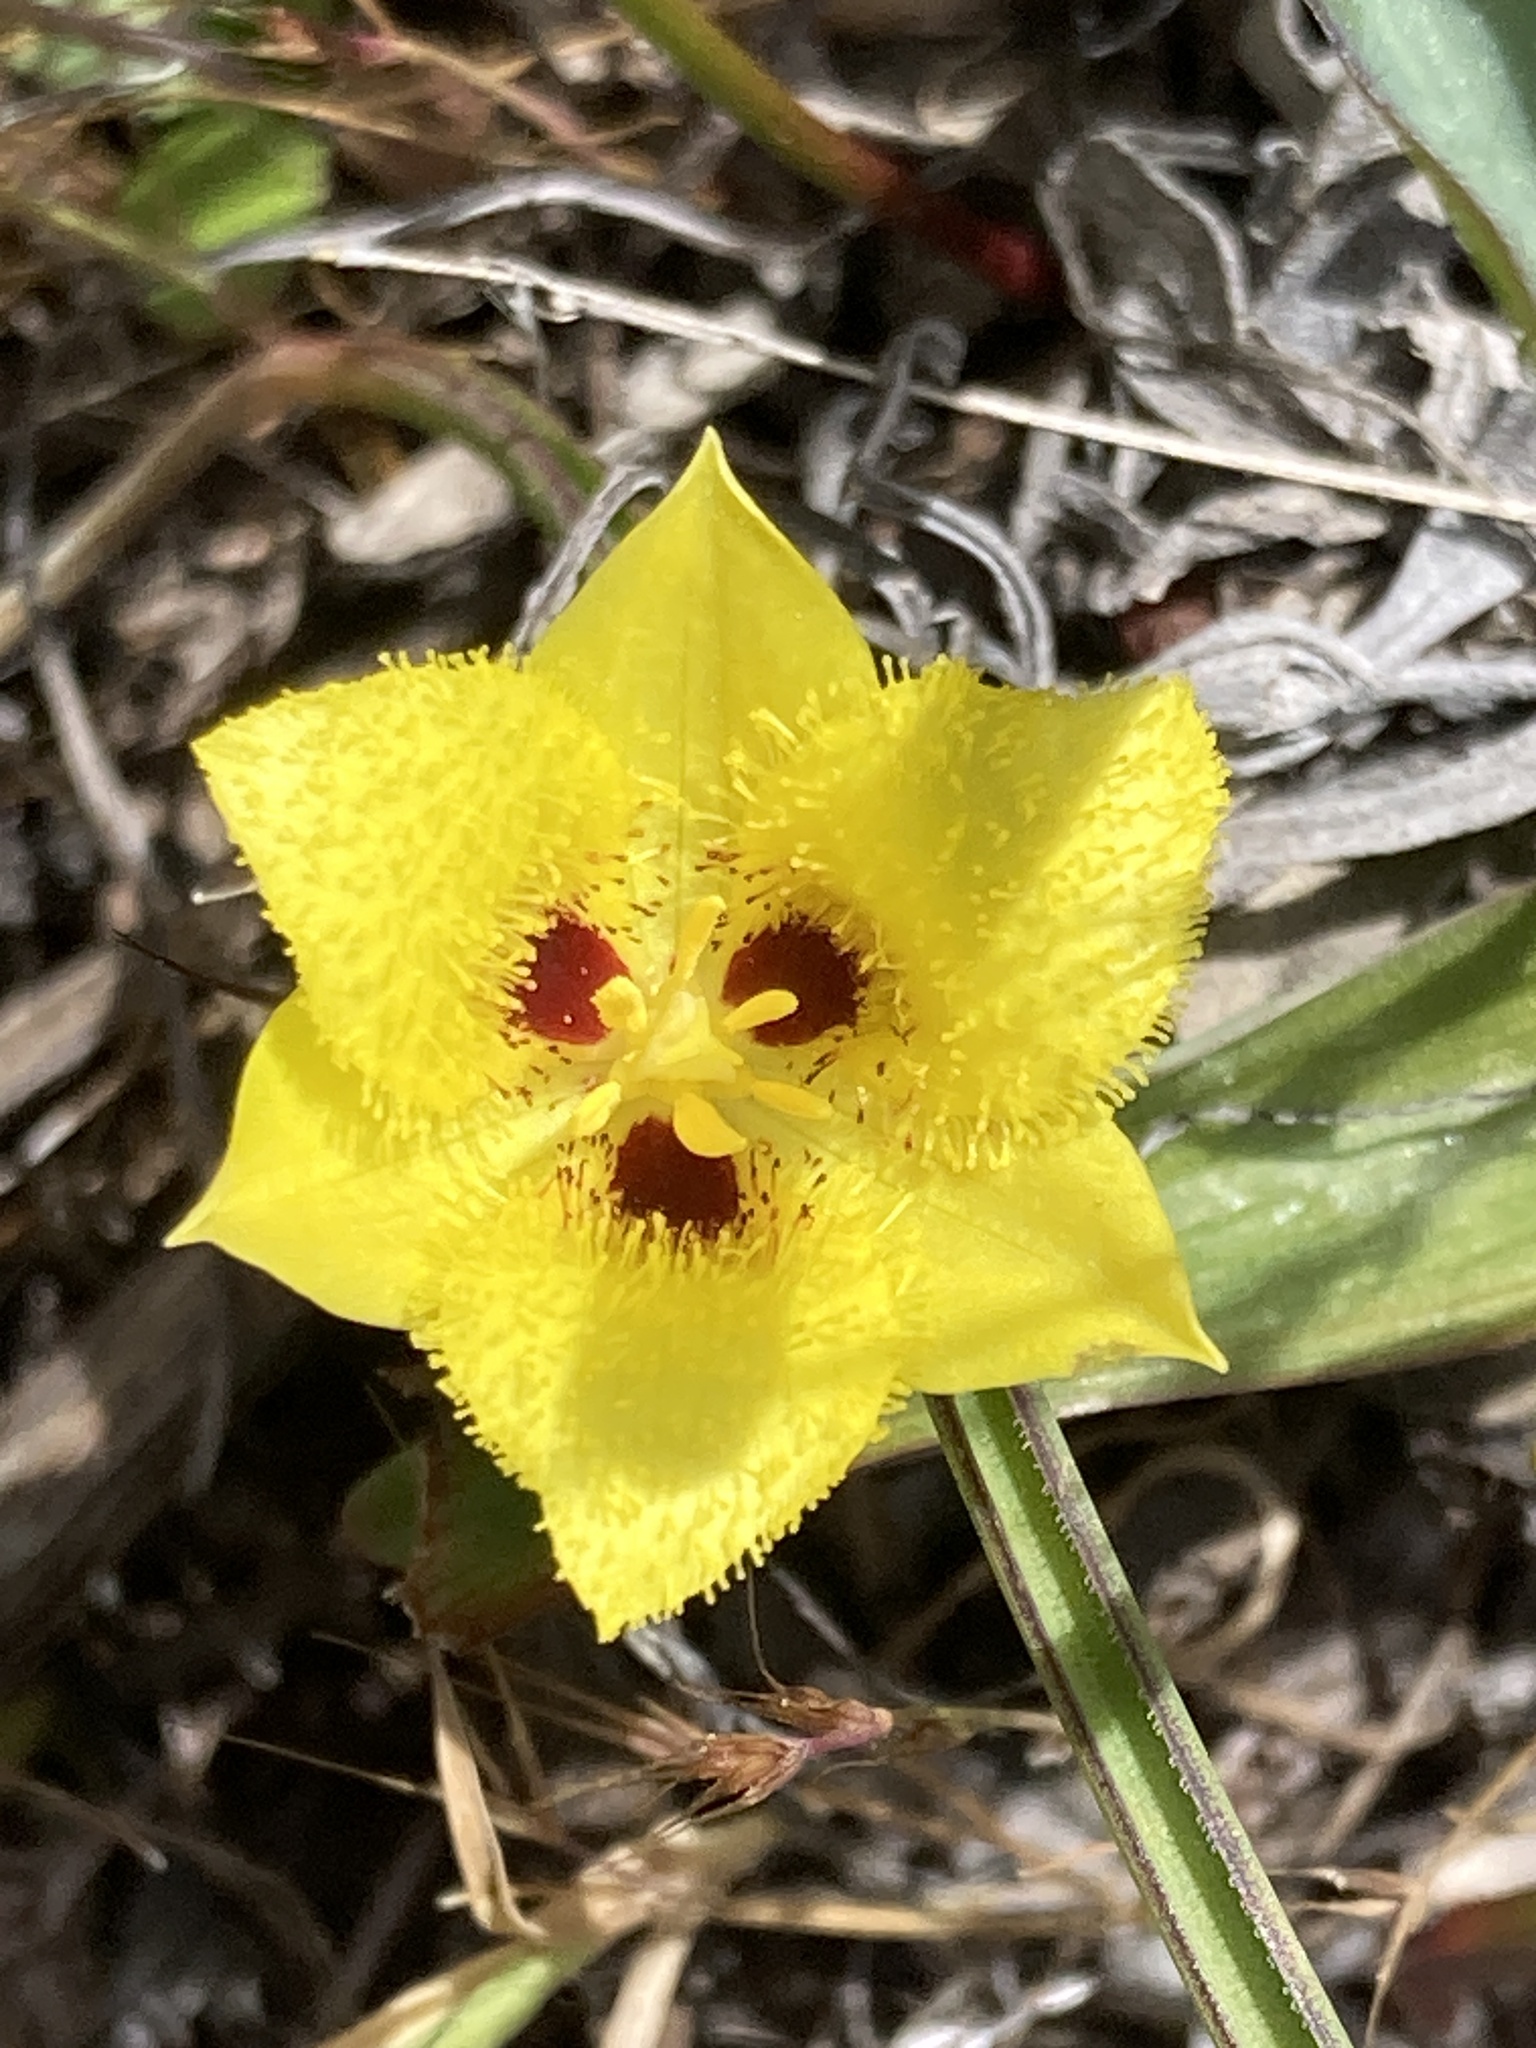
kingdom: Plantae
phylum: Tracheophyta
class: Liliopsida
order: Liliales
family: Liliaceae
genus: Calochortus
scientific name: Calochortus monophyllus
